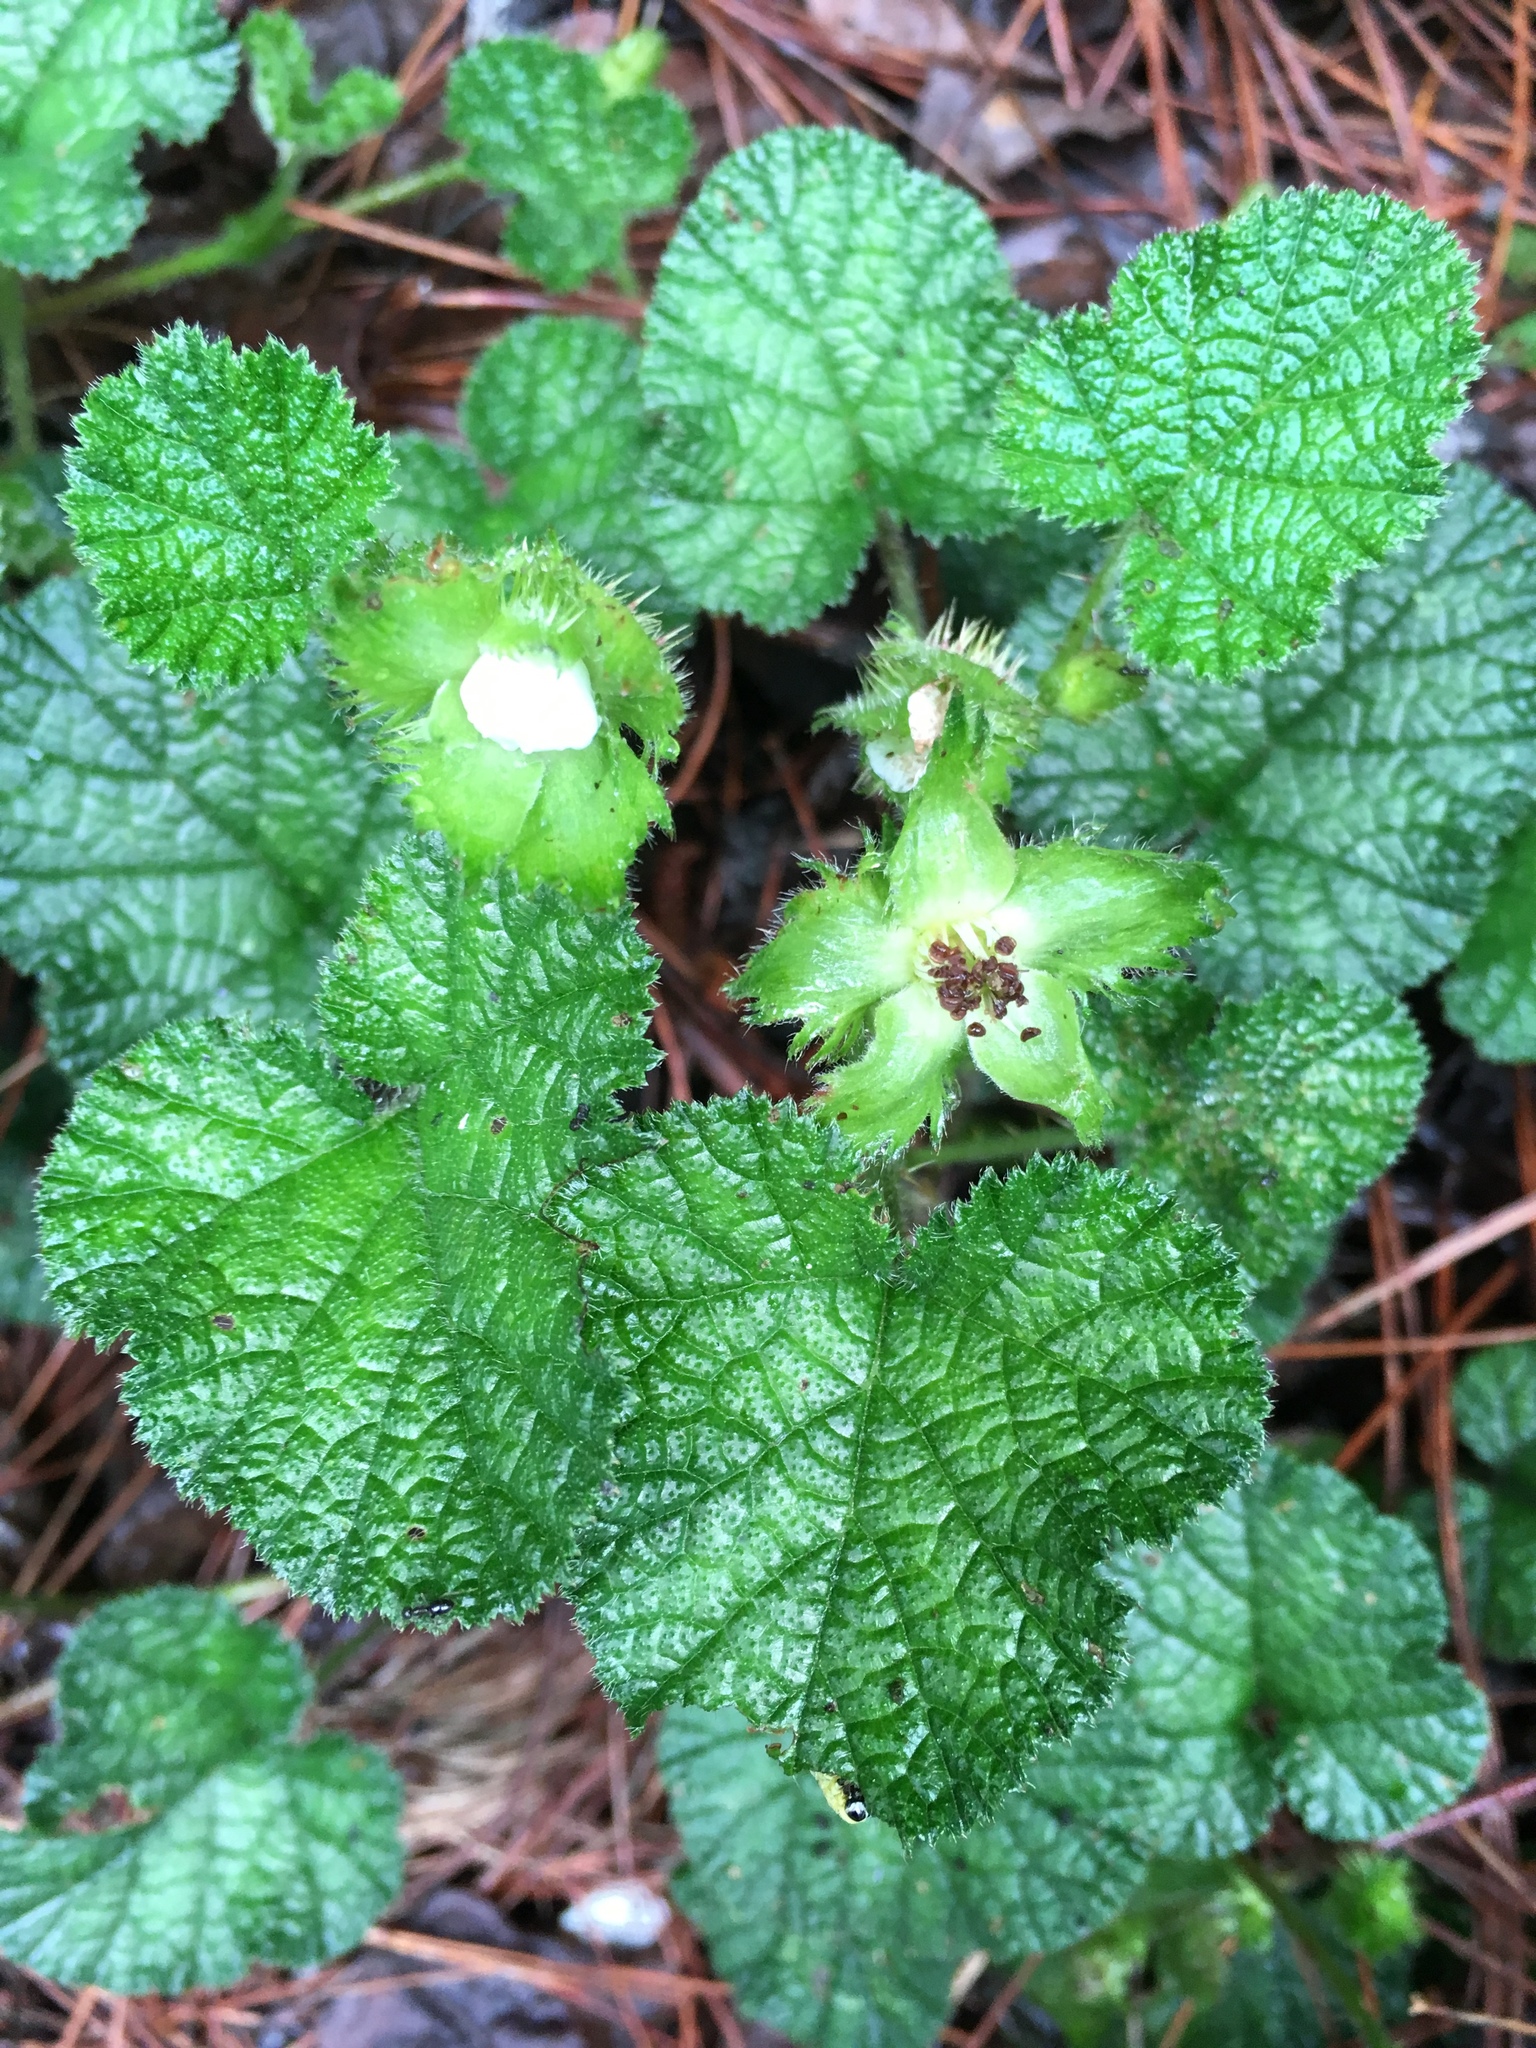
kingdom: Plantae
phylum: Tracheophyta
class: Magnoliopsida
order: Rosales
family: Rosaceae
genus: Rubus
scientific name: Rubus pectinellus
